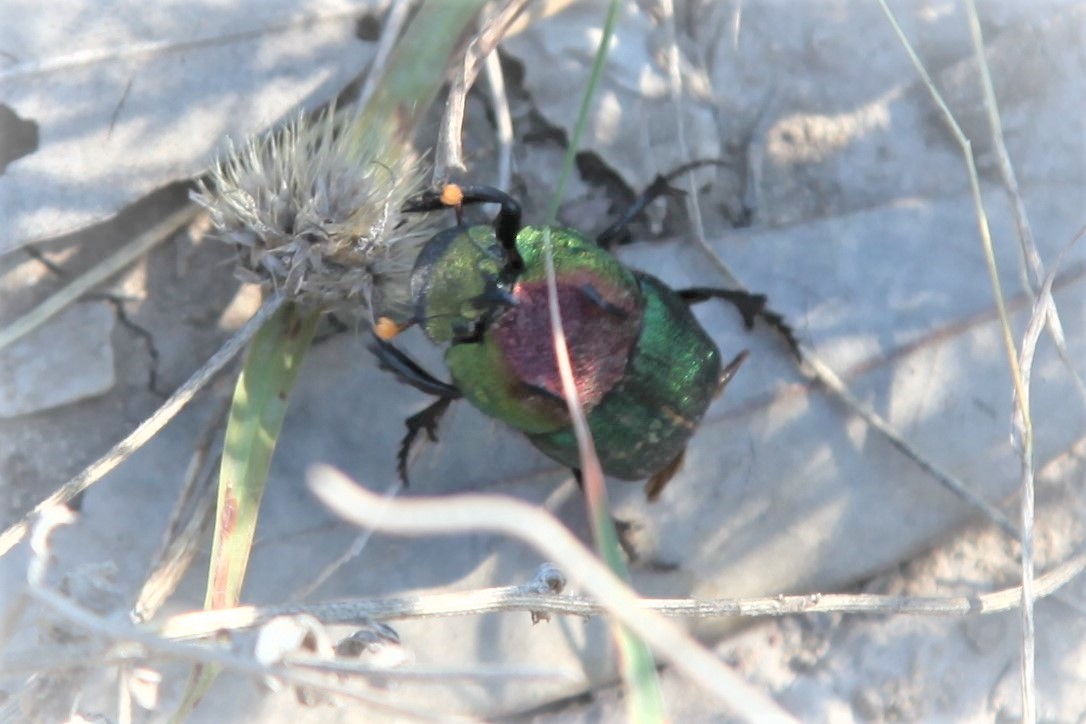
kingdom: Animalia
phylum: Arthropoda
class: Insecta
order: Coleoptera
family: Scarabaeidae
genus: Phanaeus
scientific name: Phanaeus difformis
